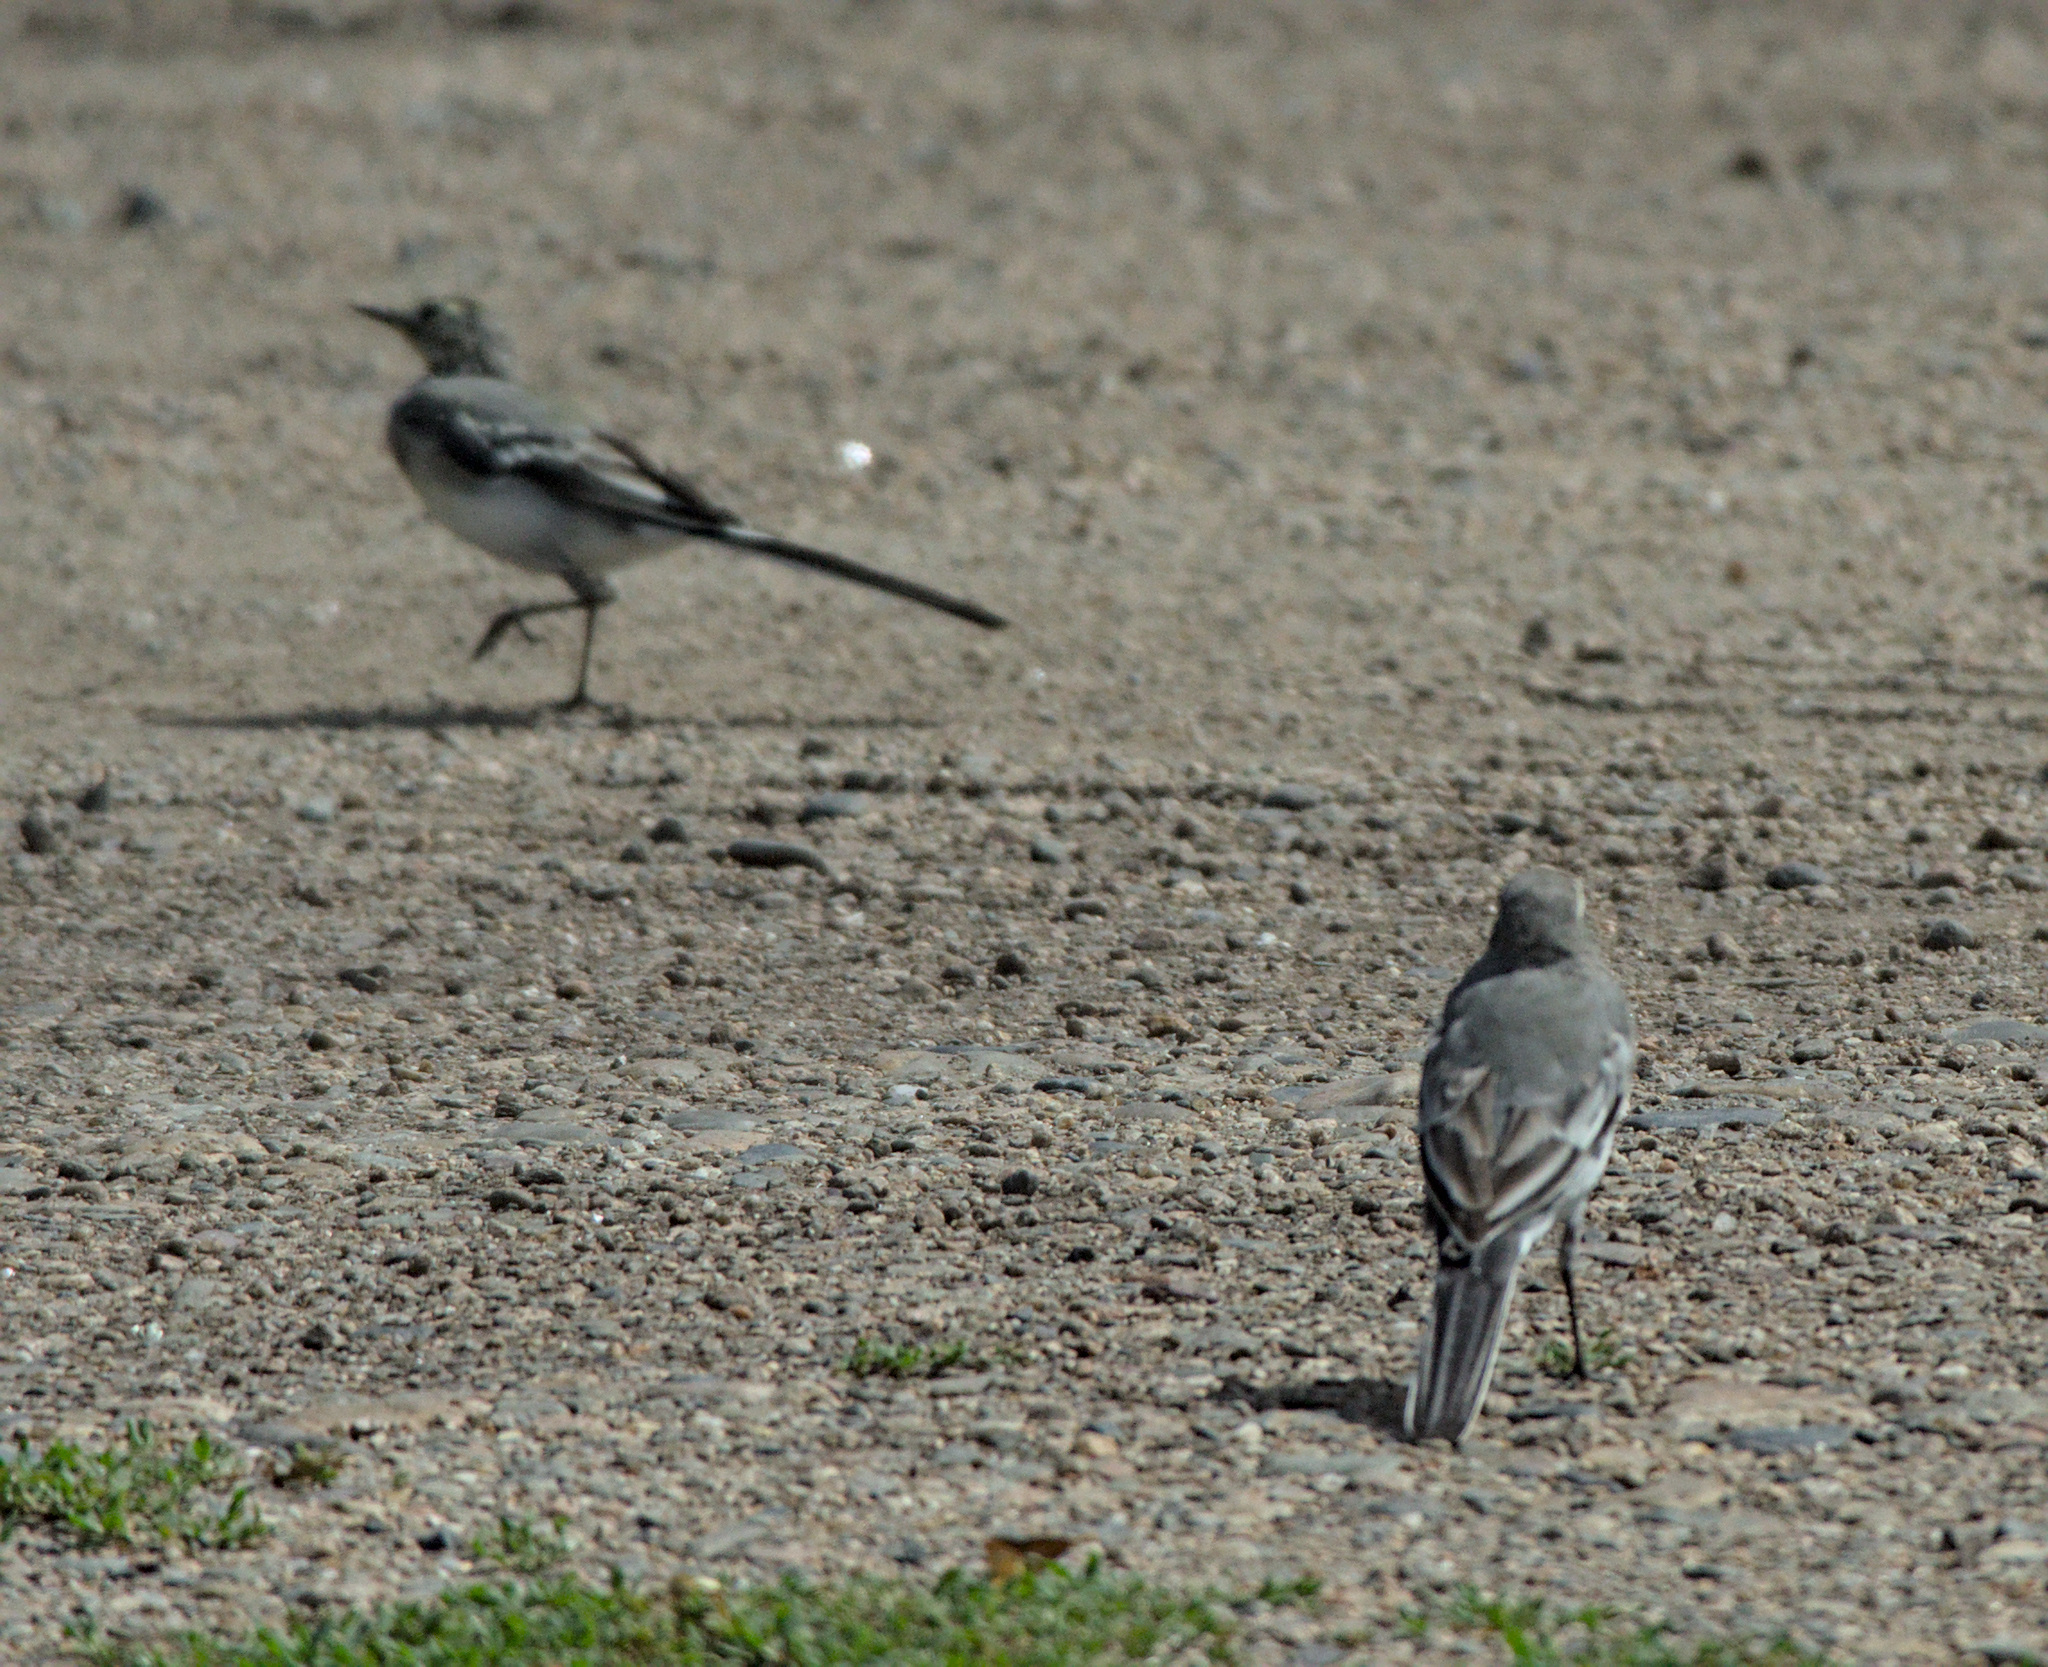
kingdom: Animalia
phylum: Chordata
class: Aves
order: Passeriformes
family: Motacillidae
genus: Motacilla
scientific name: Motacilla alba
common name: White wagtail
